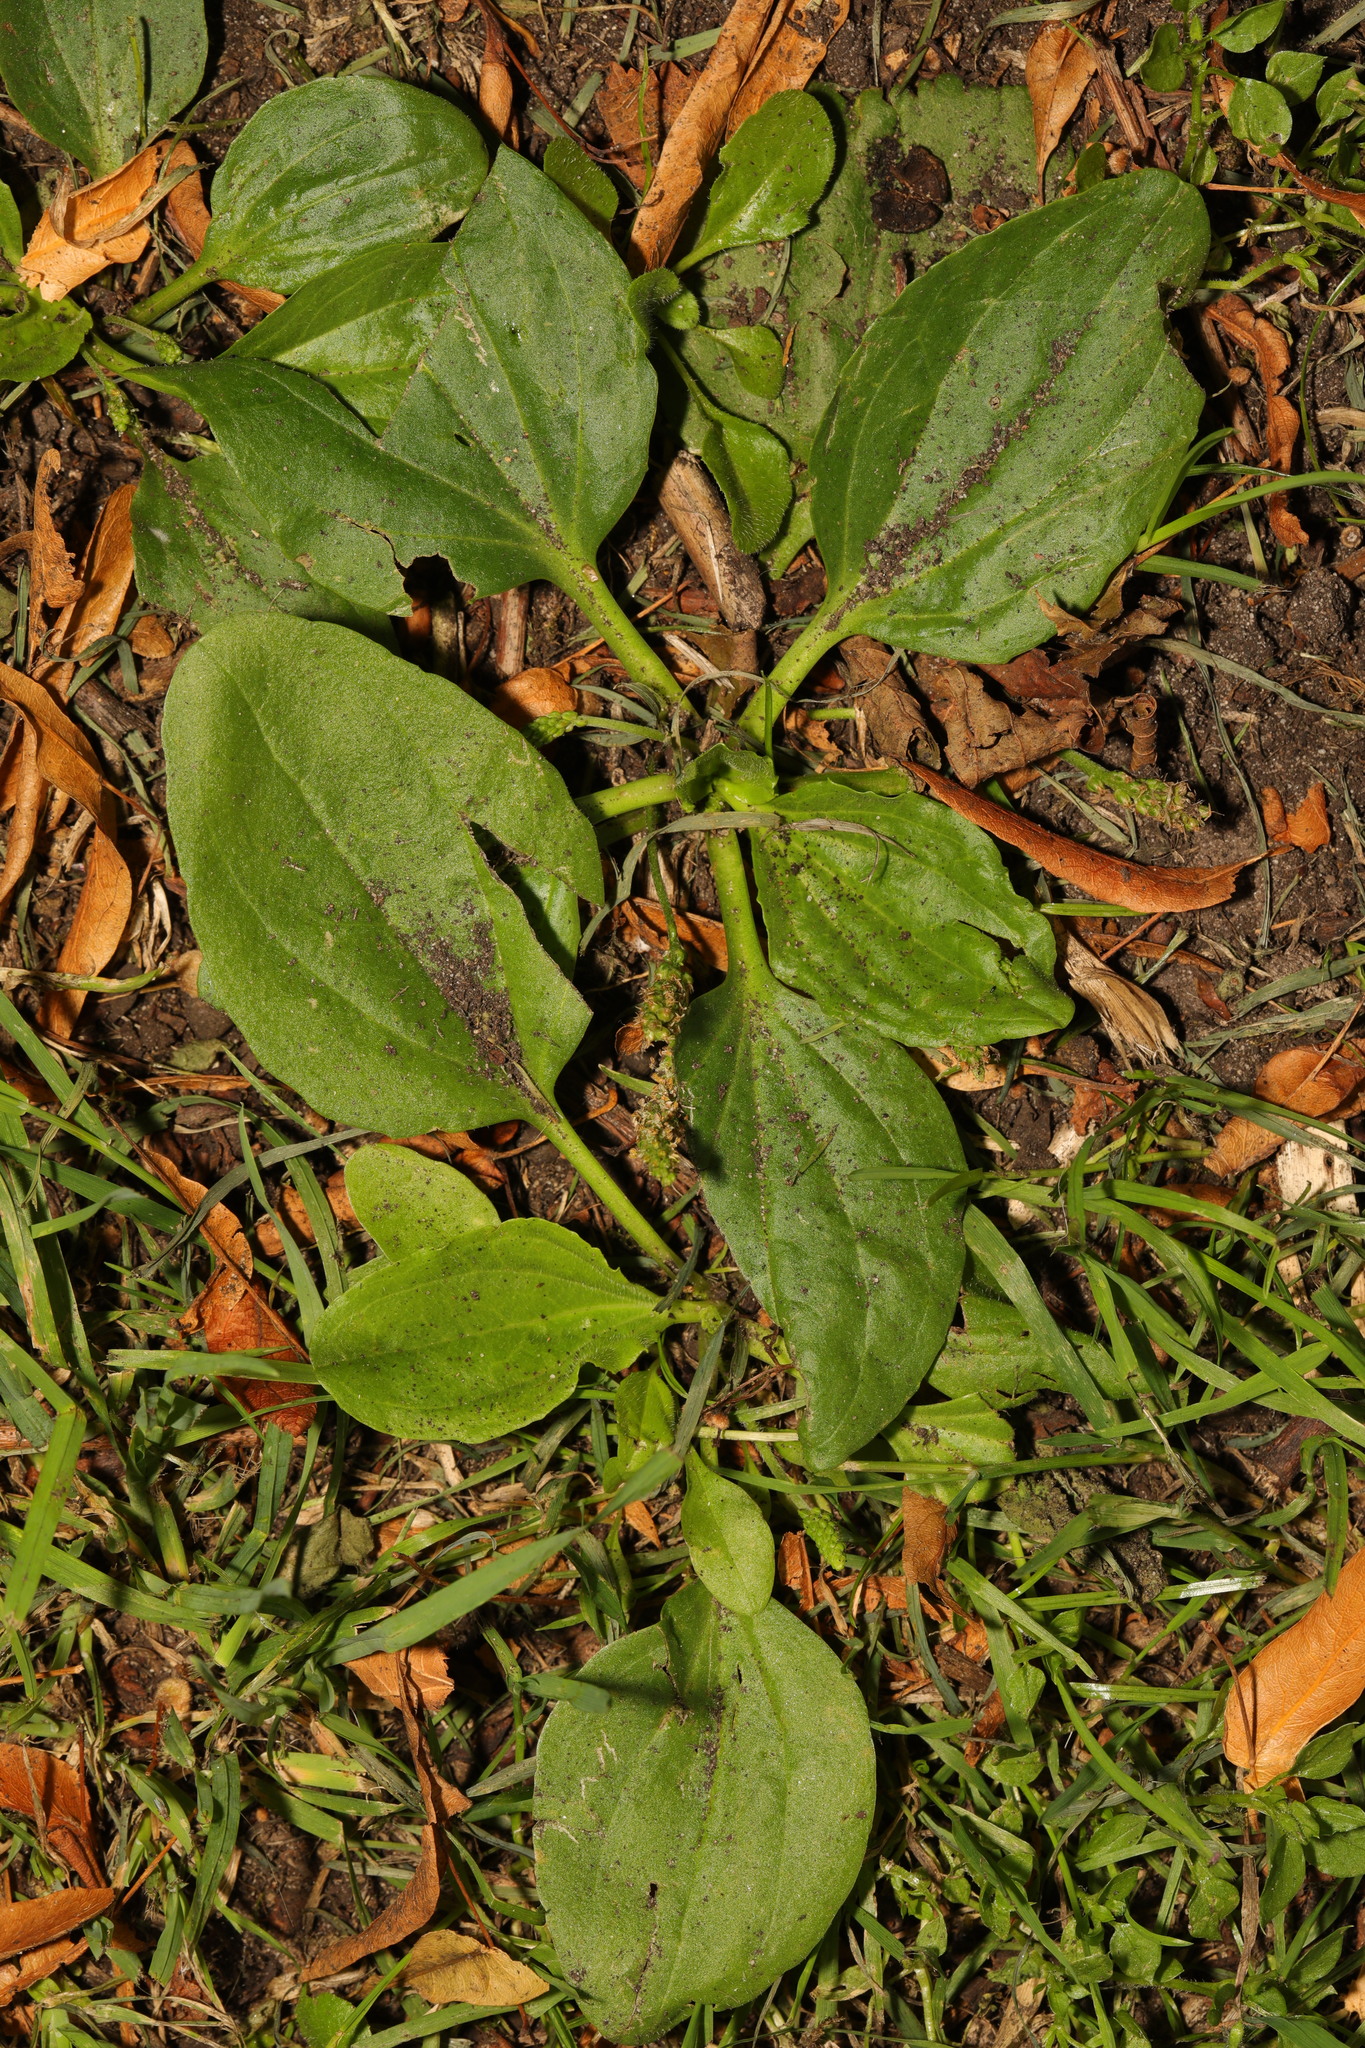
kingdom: Plantae
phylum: Tracheophyta
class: Magnoliopsida
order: Lamiales
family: Plantaginaceae
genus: Plantago
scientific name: Plantago major
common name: Common plantain
